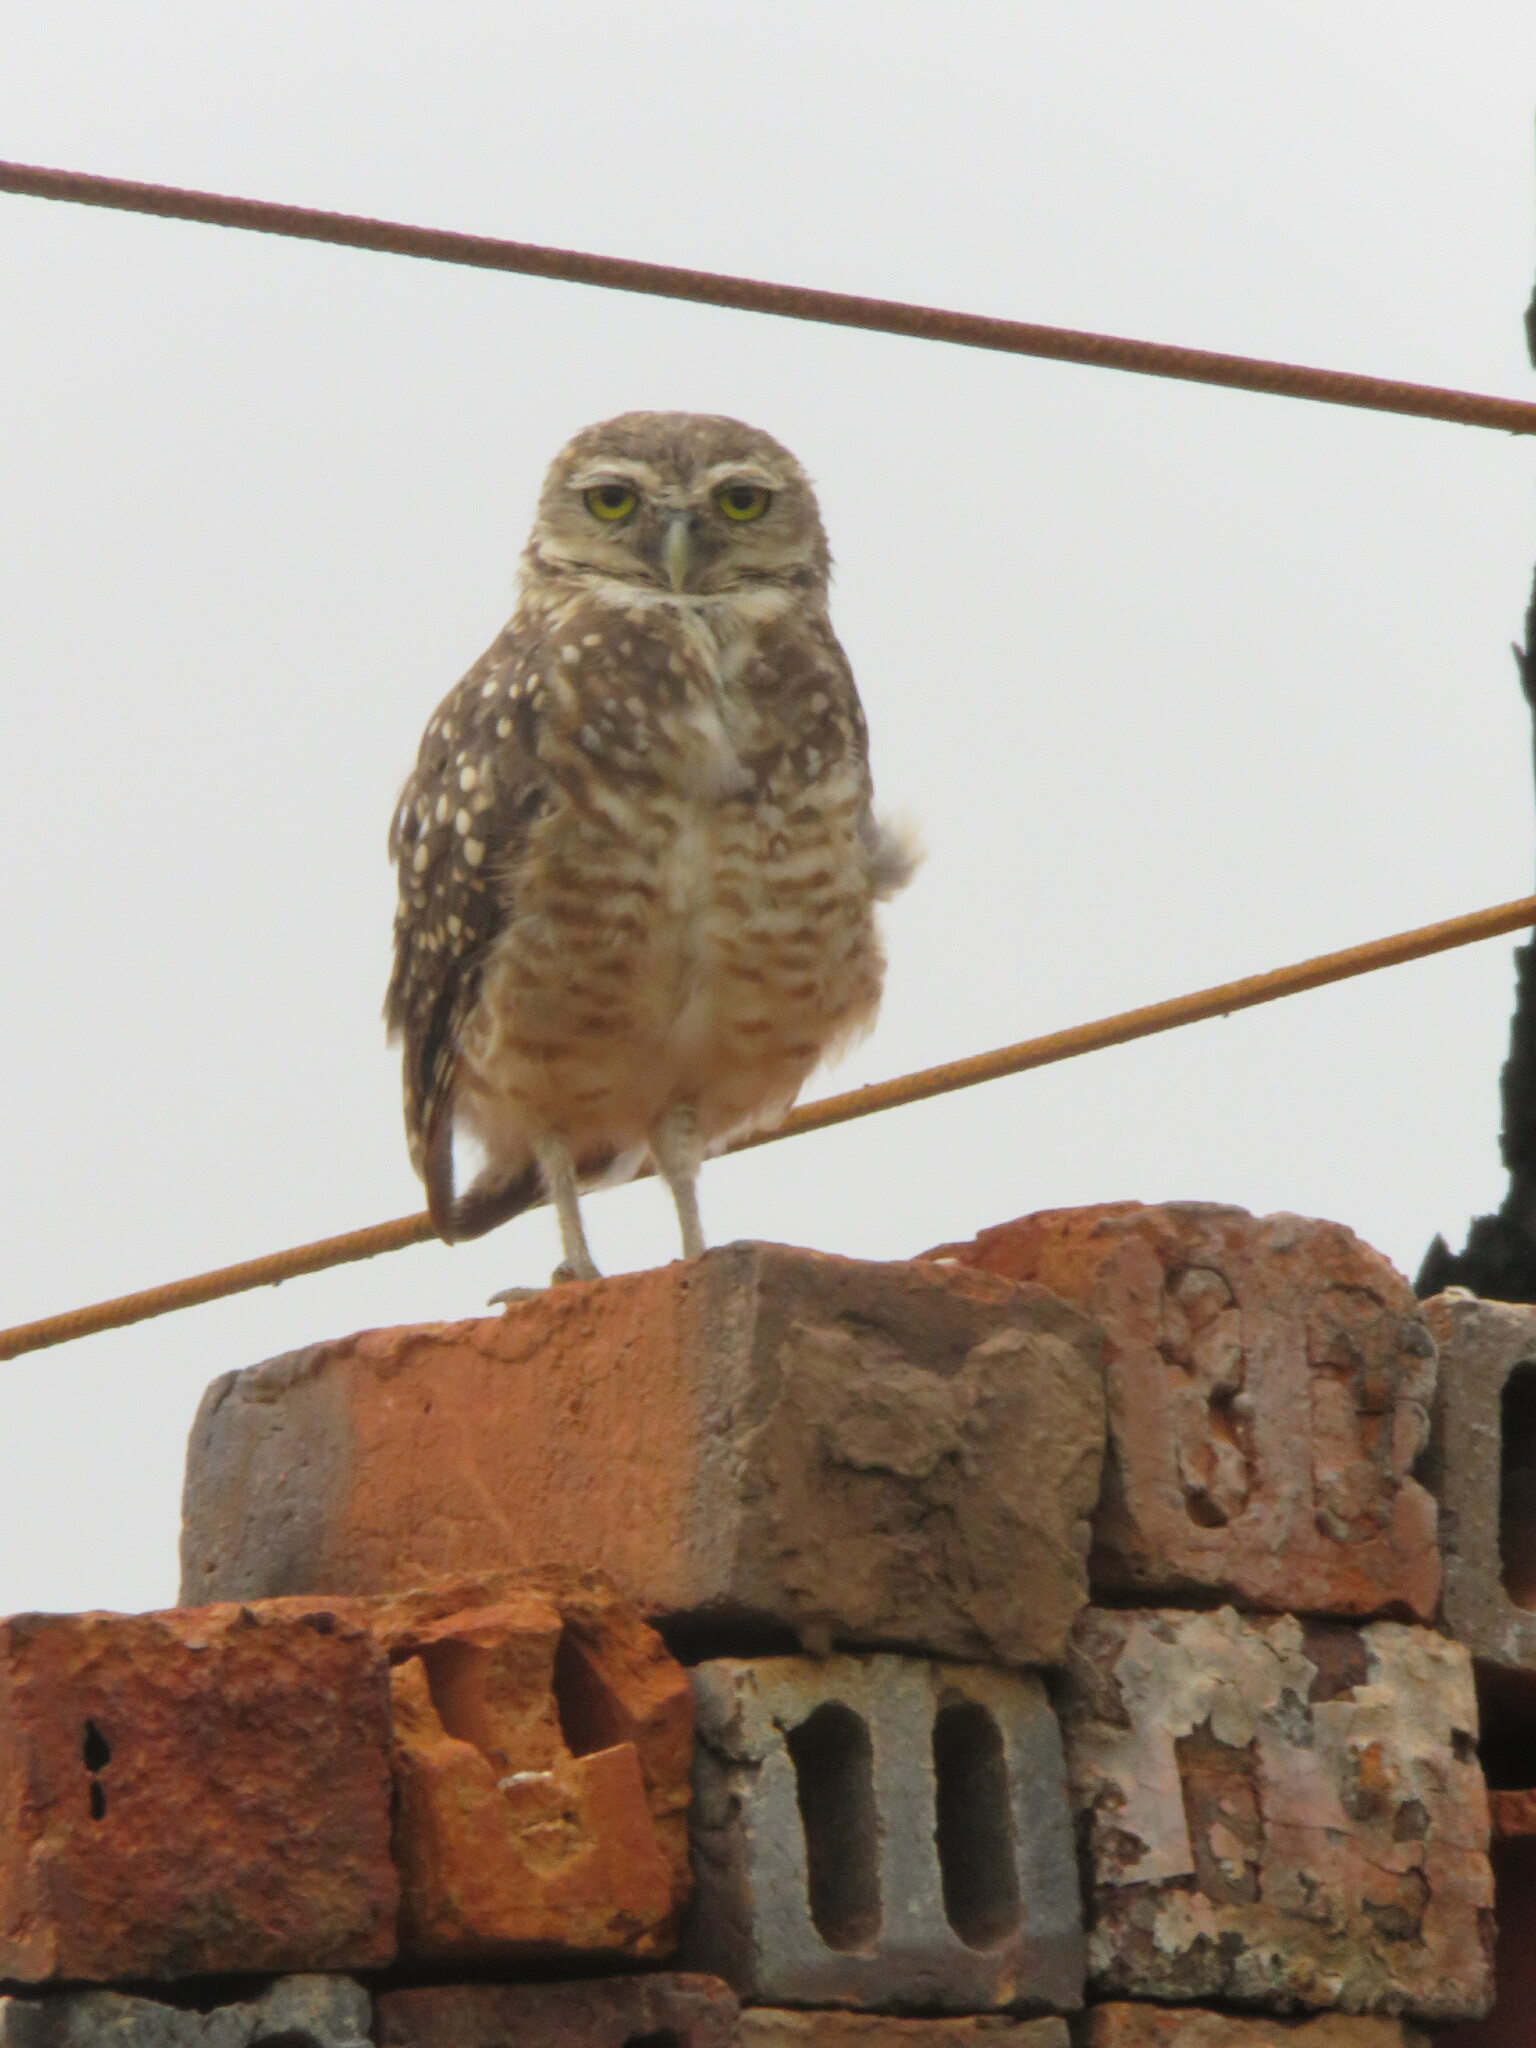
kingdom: Animalia
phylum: Chordata
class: Aves
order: Strigiformes
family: Strigidae
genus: Athene
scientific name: Athene cunicularia
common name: Burrowing owl
